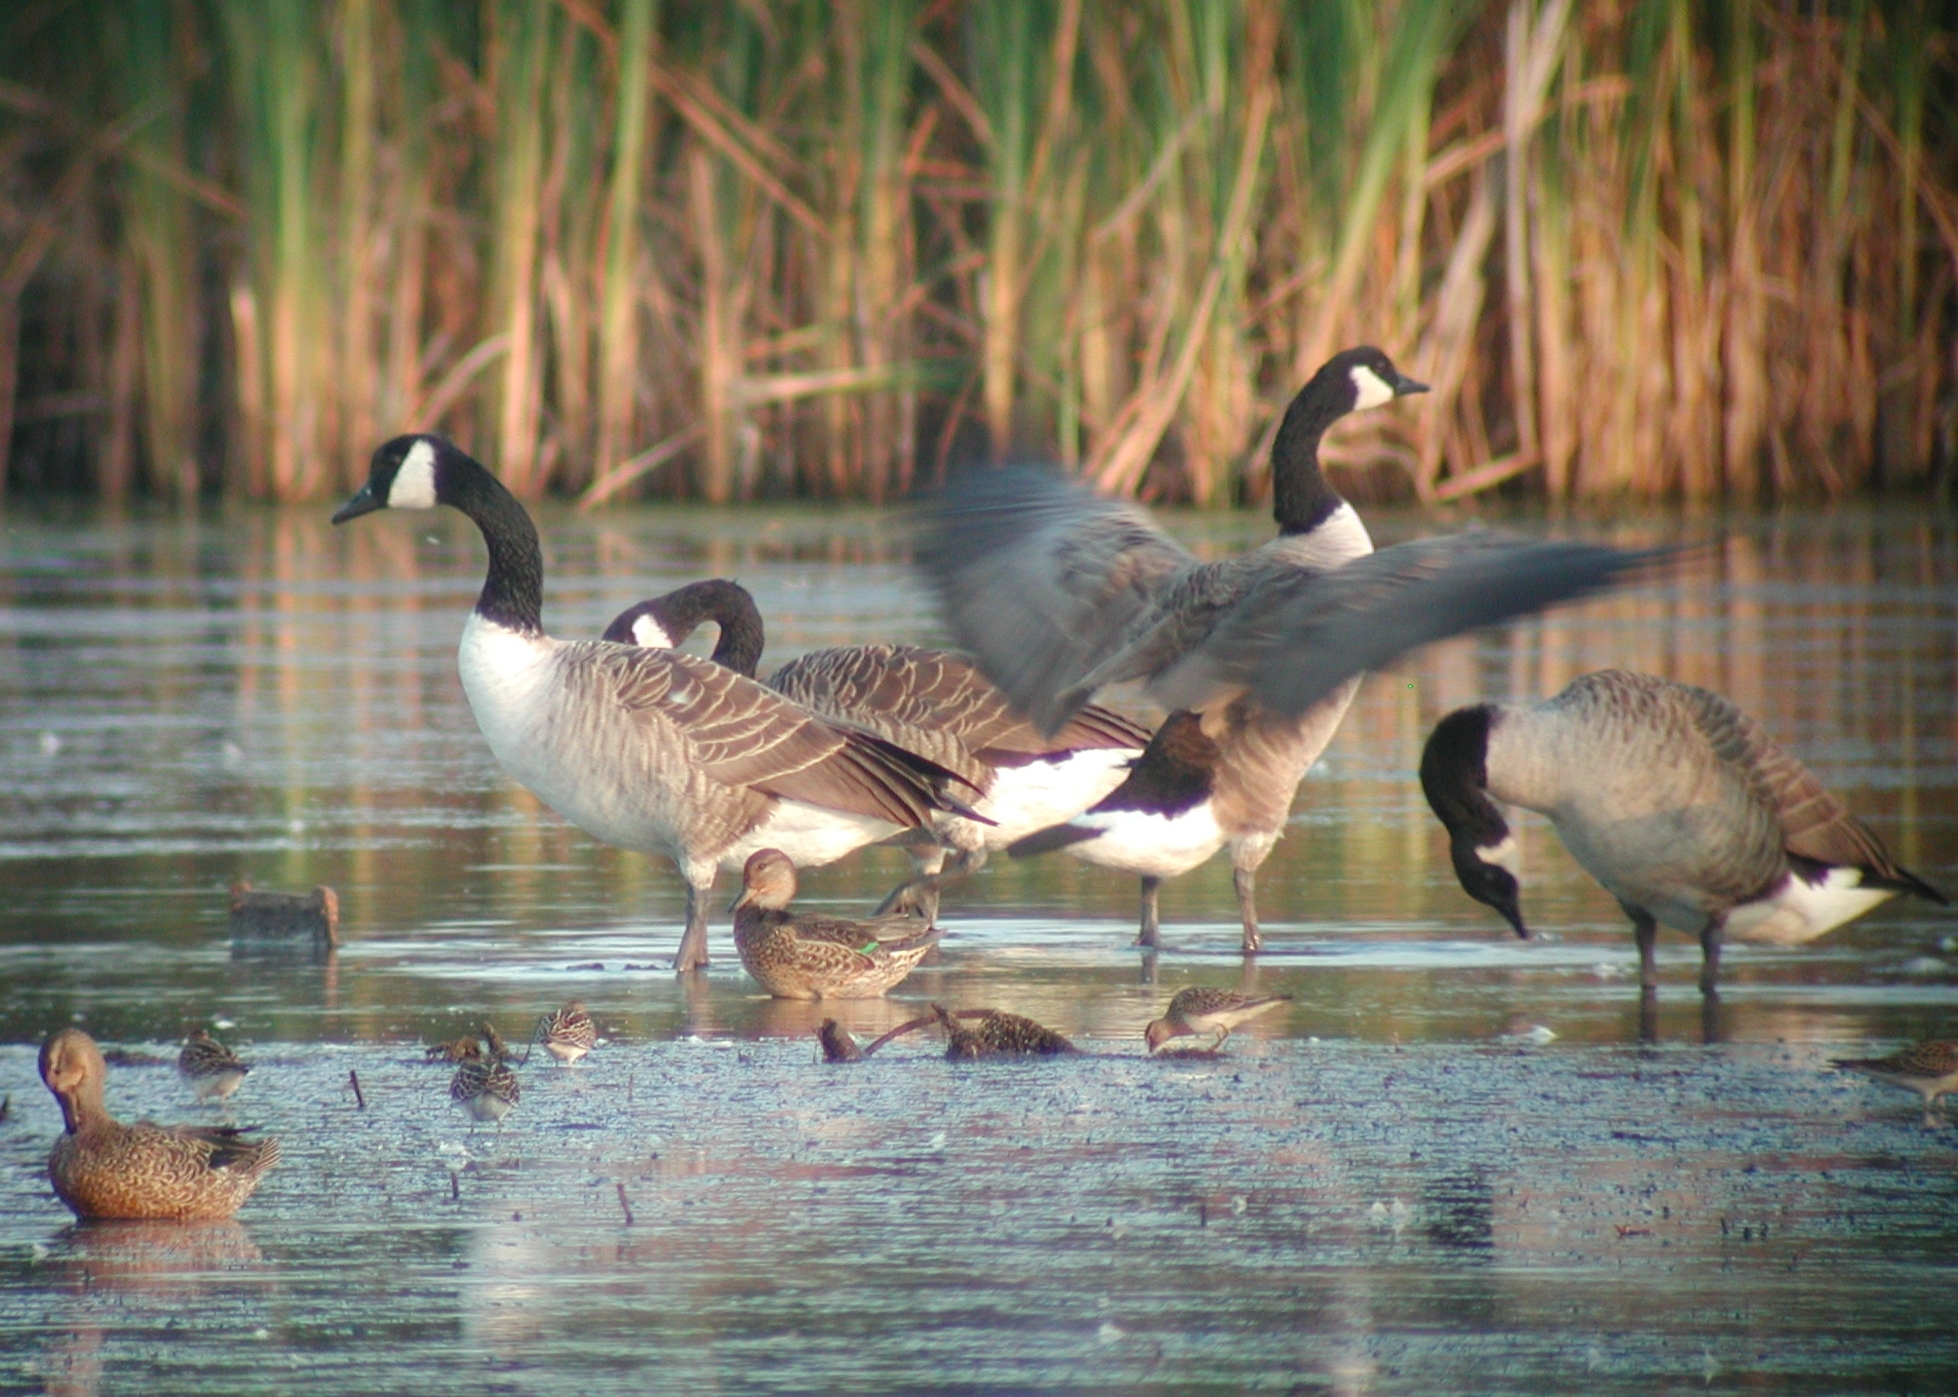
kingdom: Animalia
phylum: Chordata
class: Aves
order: Anseriformes
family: Anatidae
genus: Branta
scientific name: Branta canadensis
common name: Canada goose
